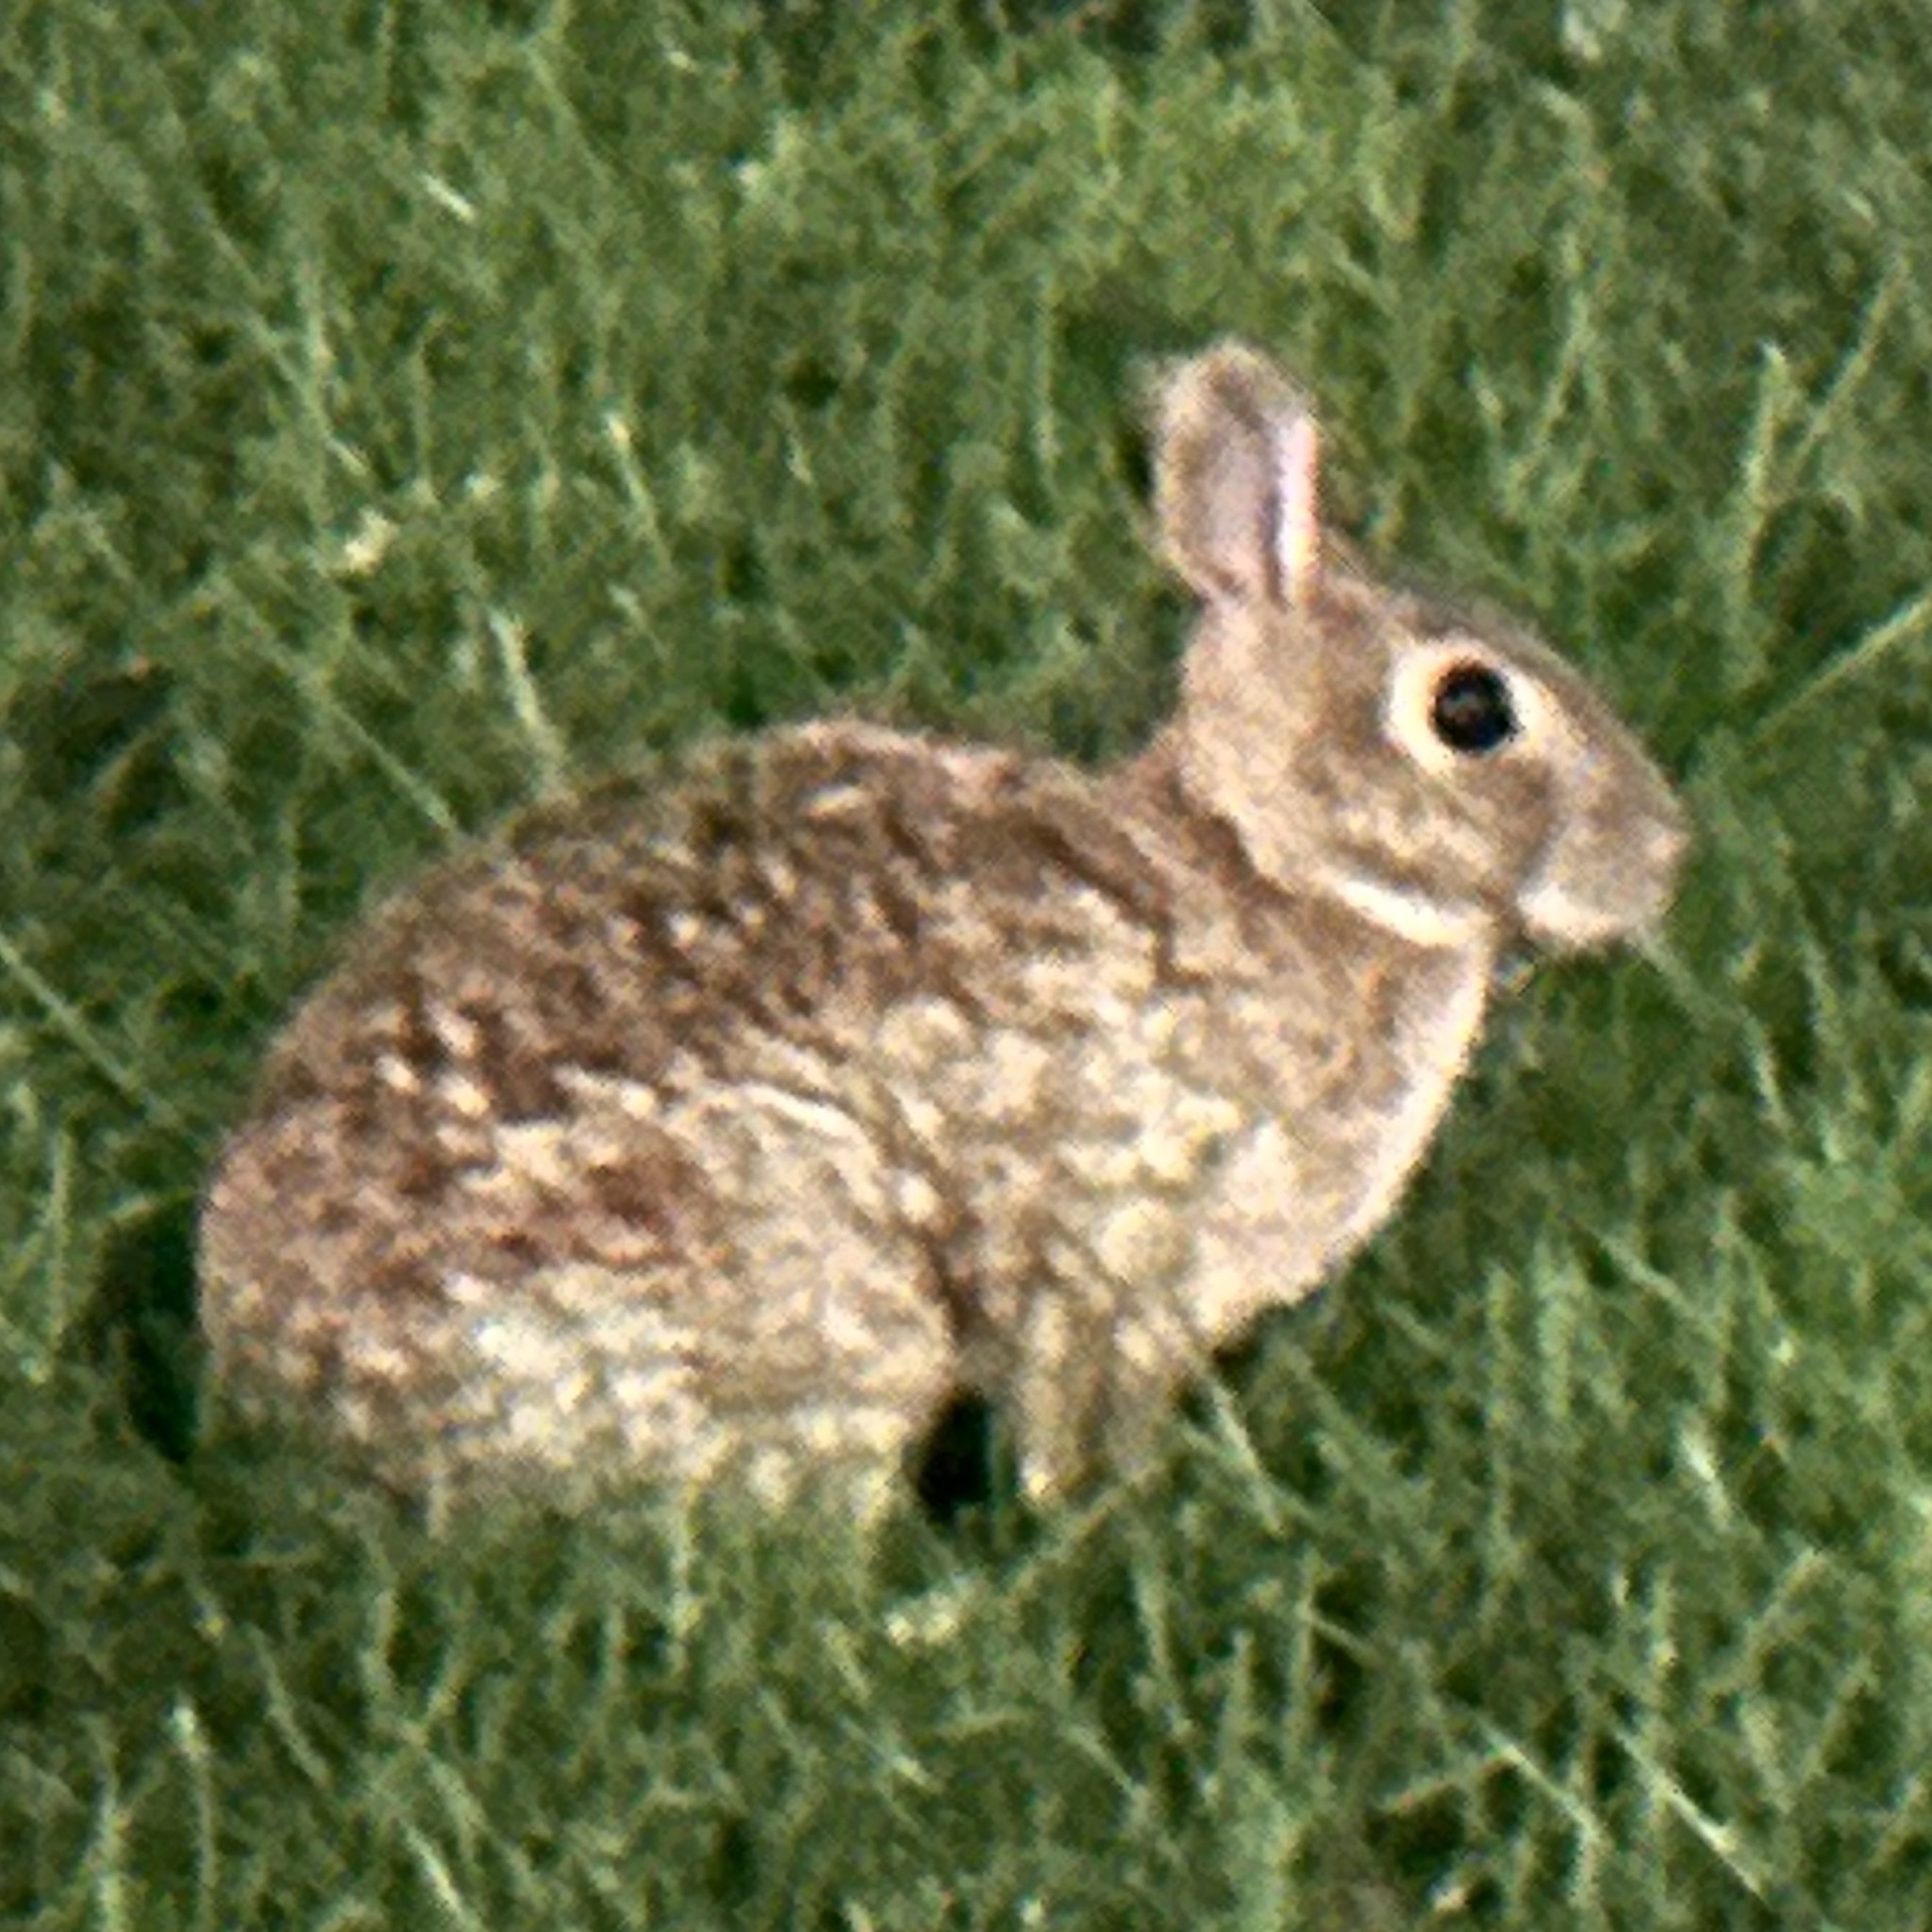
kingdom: Animalia
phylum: Chordata
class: Mammalia
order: Lagomorpha
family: Leporidae
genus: Sylvilagus
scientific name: Sylvilagus floridanus
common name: Eastern cottontail
